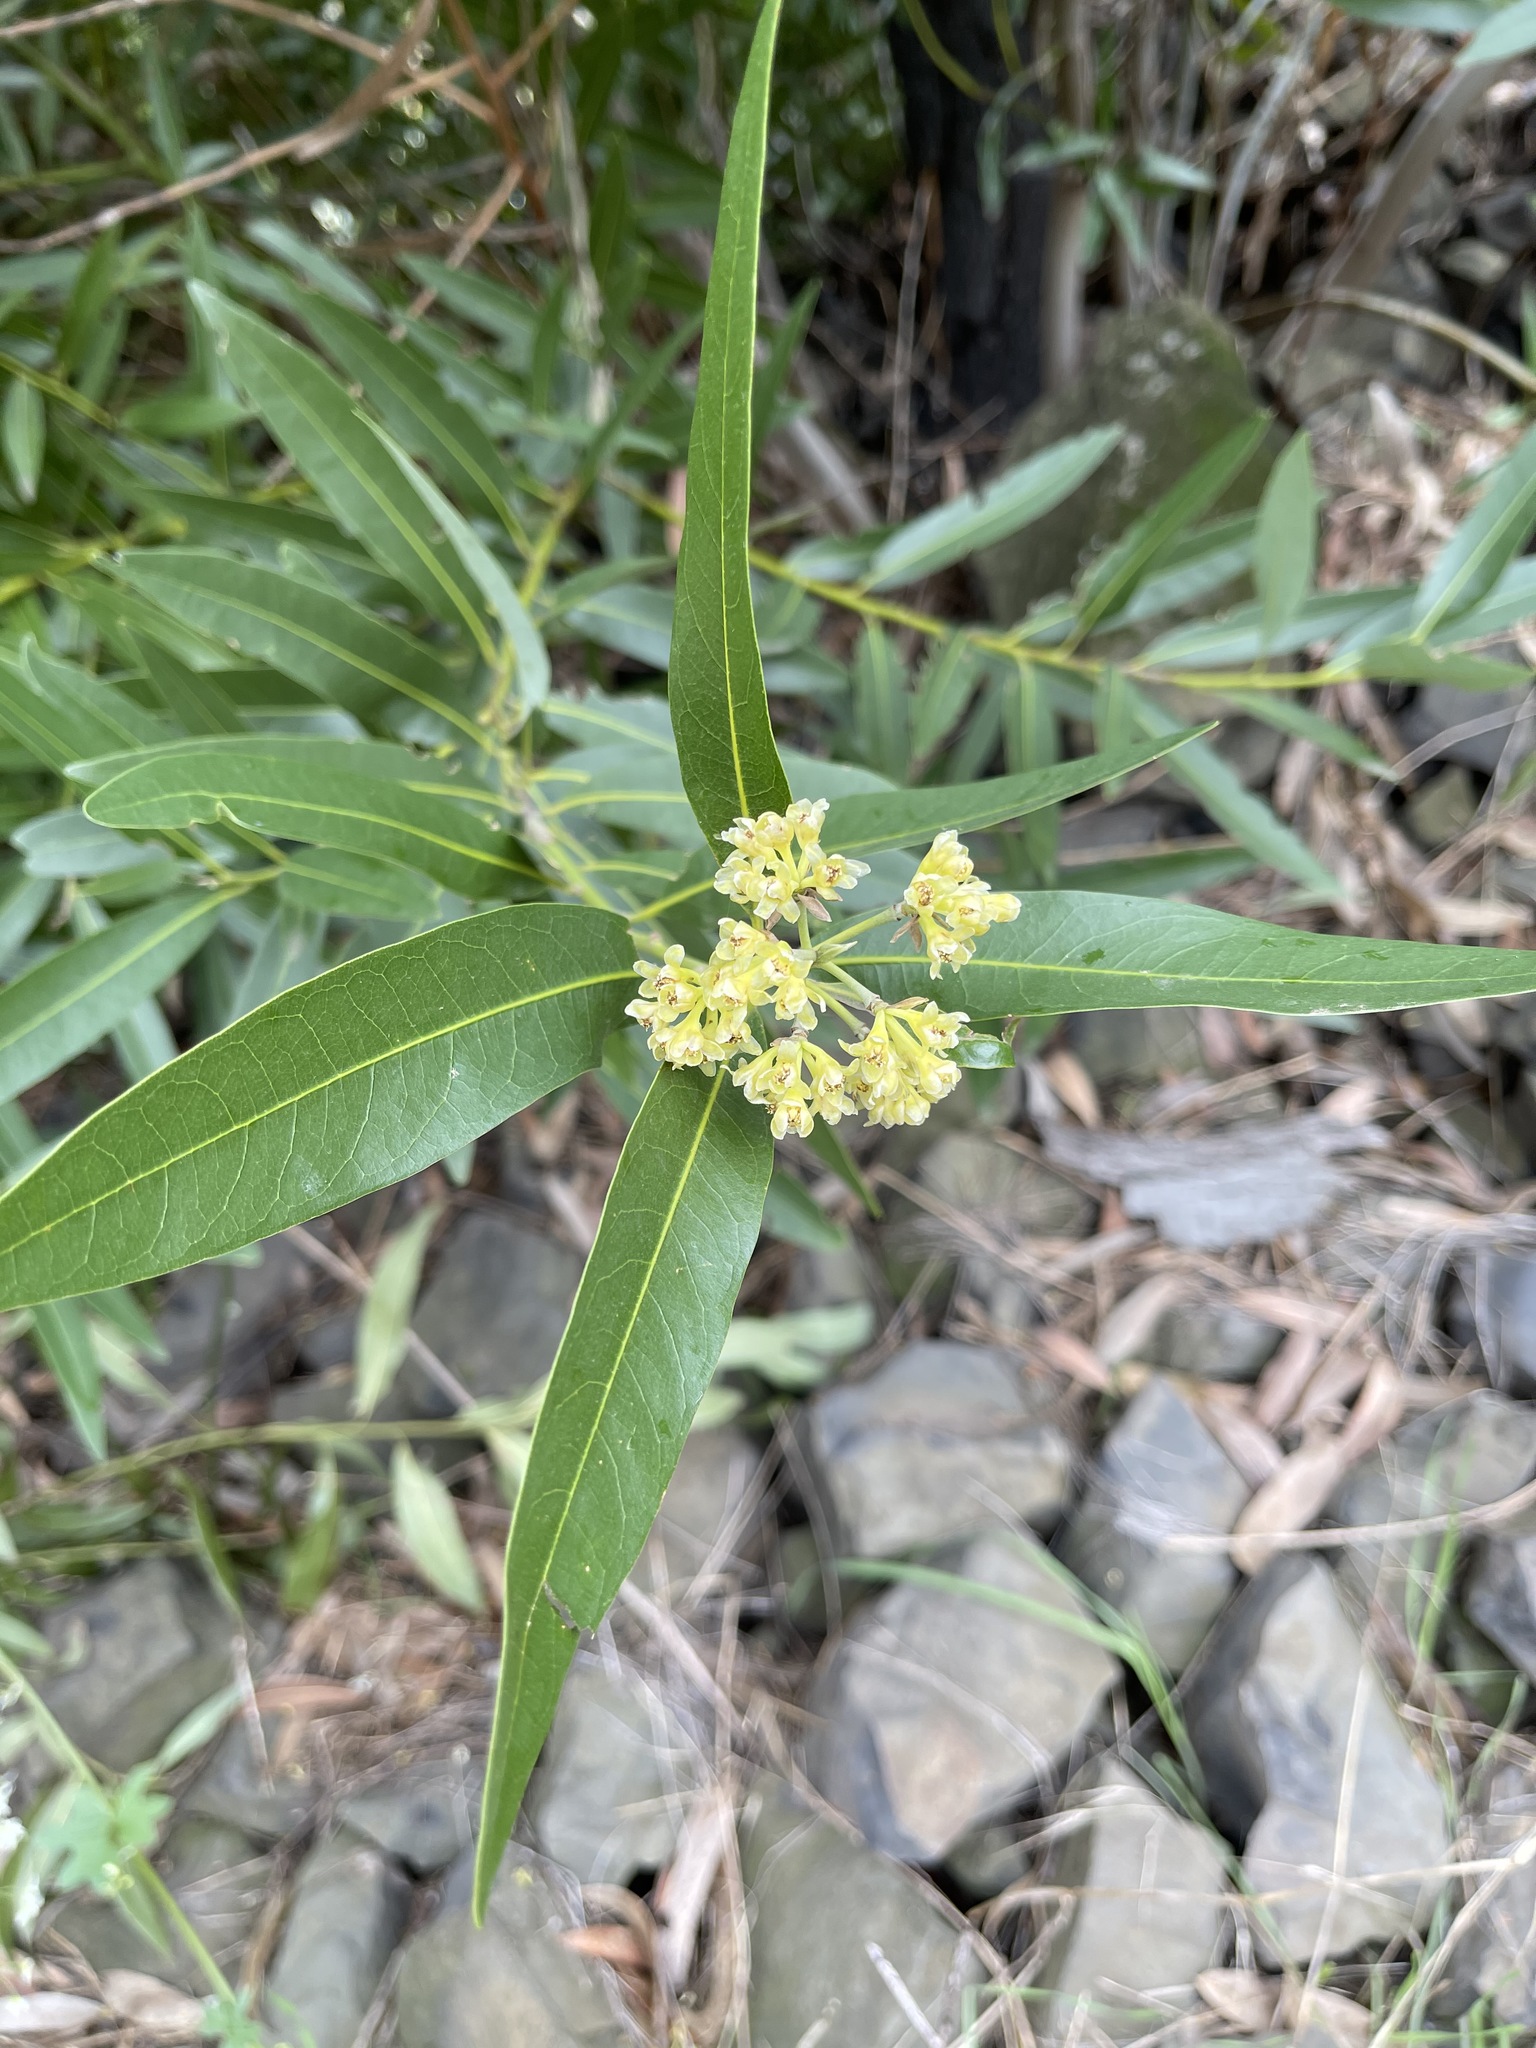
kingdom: Plantae
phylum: Tracheophyta
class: Magnoliopsida
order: Laurales
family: Lauraceae
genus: Umbellularia
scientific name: Umbellularia californica
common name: California bay
